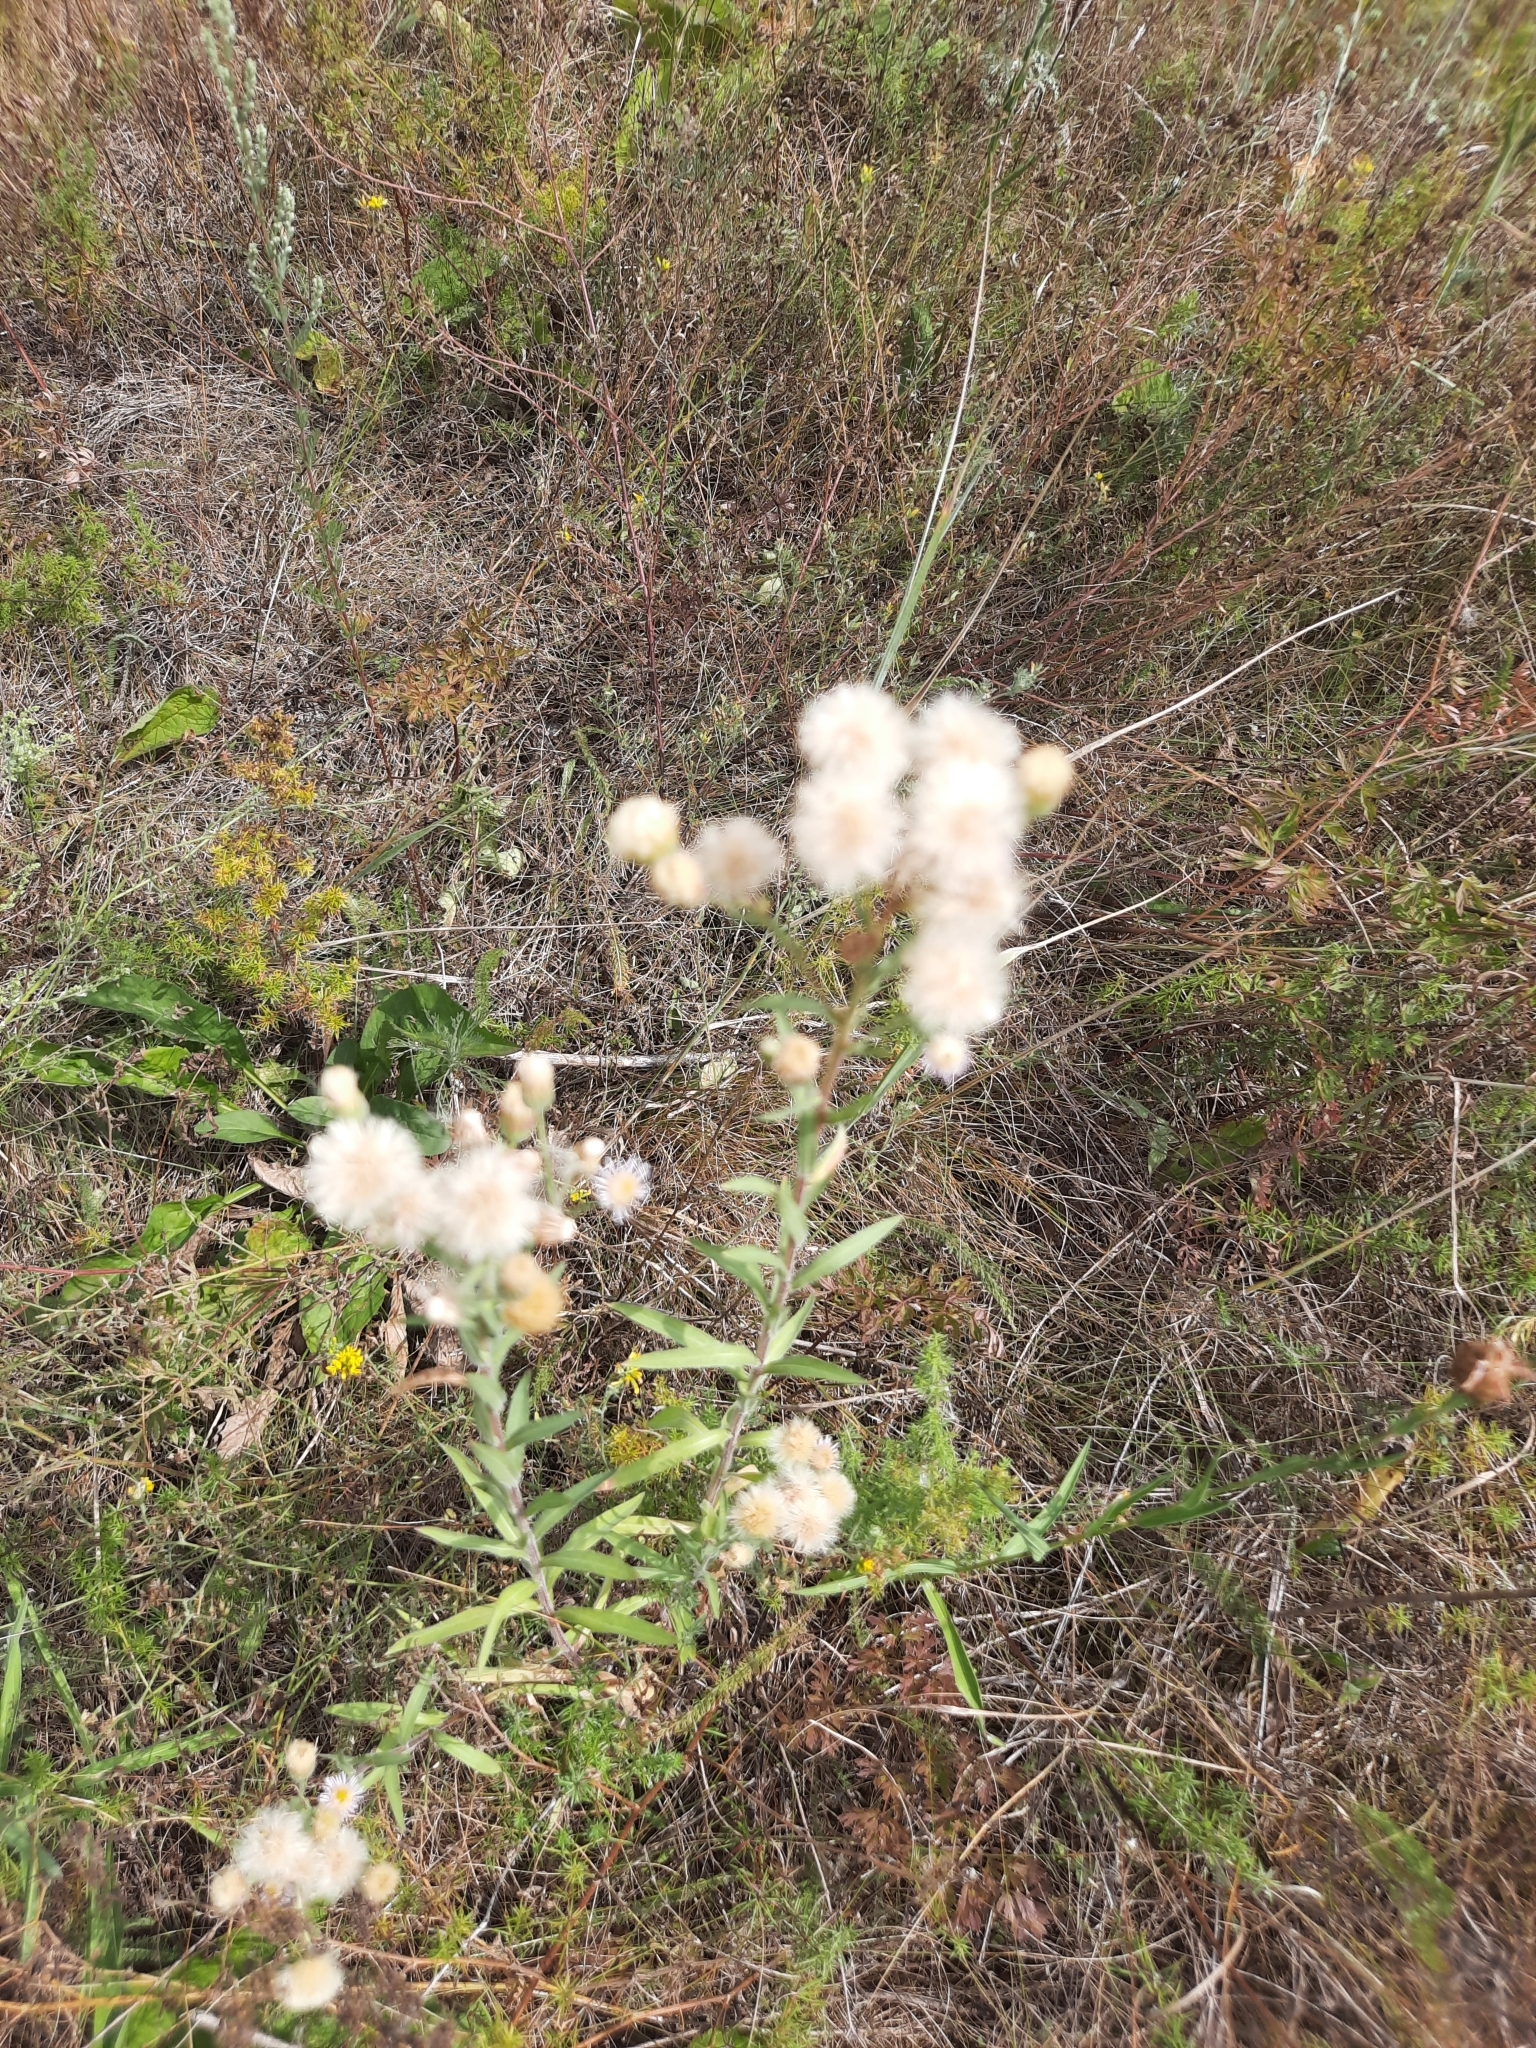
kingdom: Plantae
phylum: Tracheophyta
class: Magnoliopsida
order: Asterales
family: Asteraceae
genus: Erigeron
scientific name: Erigeron acris
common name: Blue fleabane
